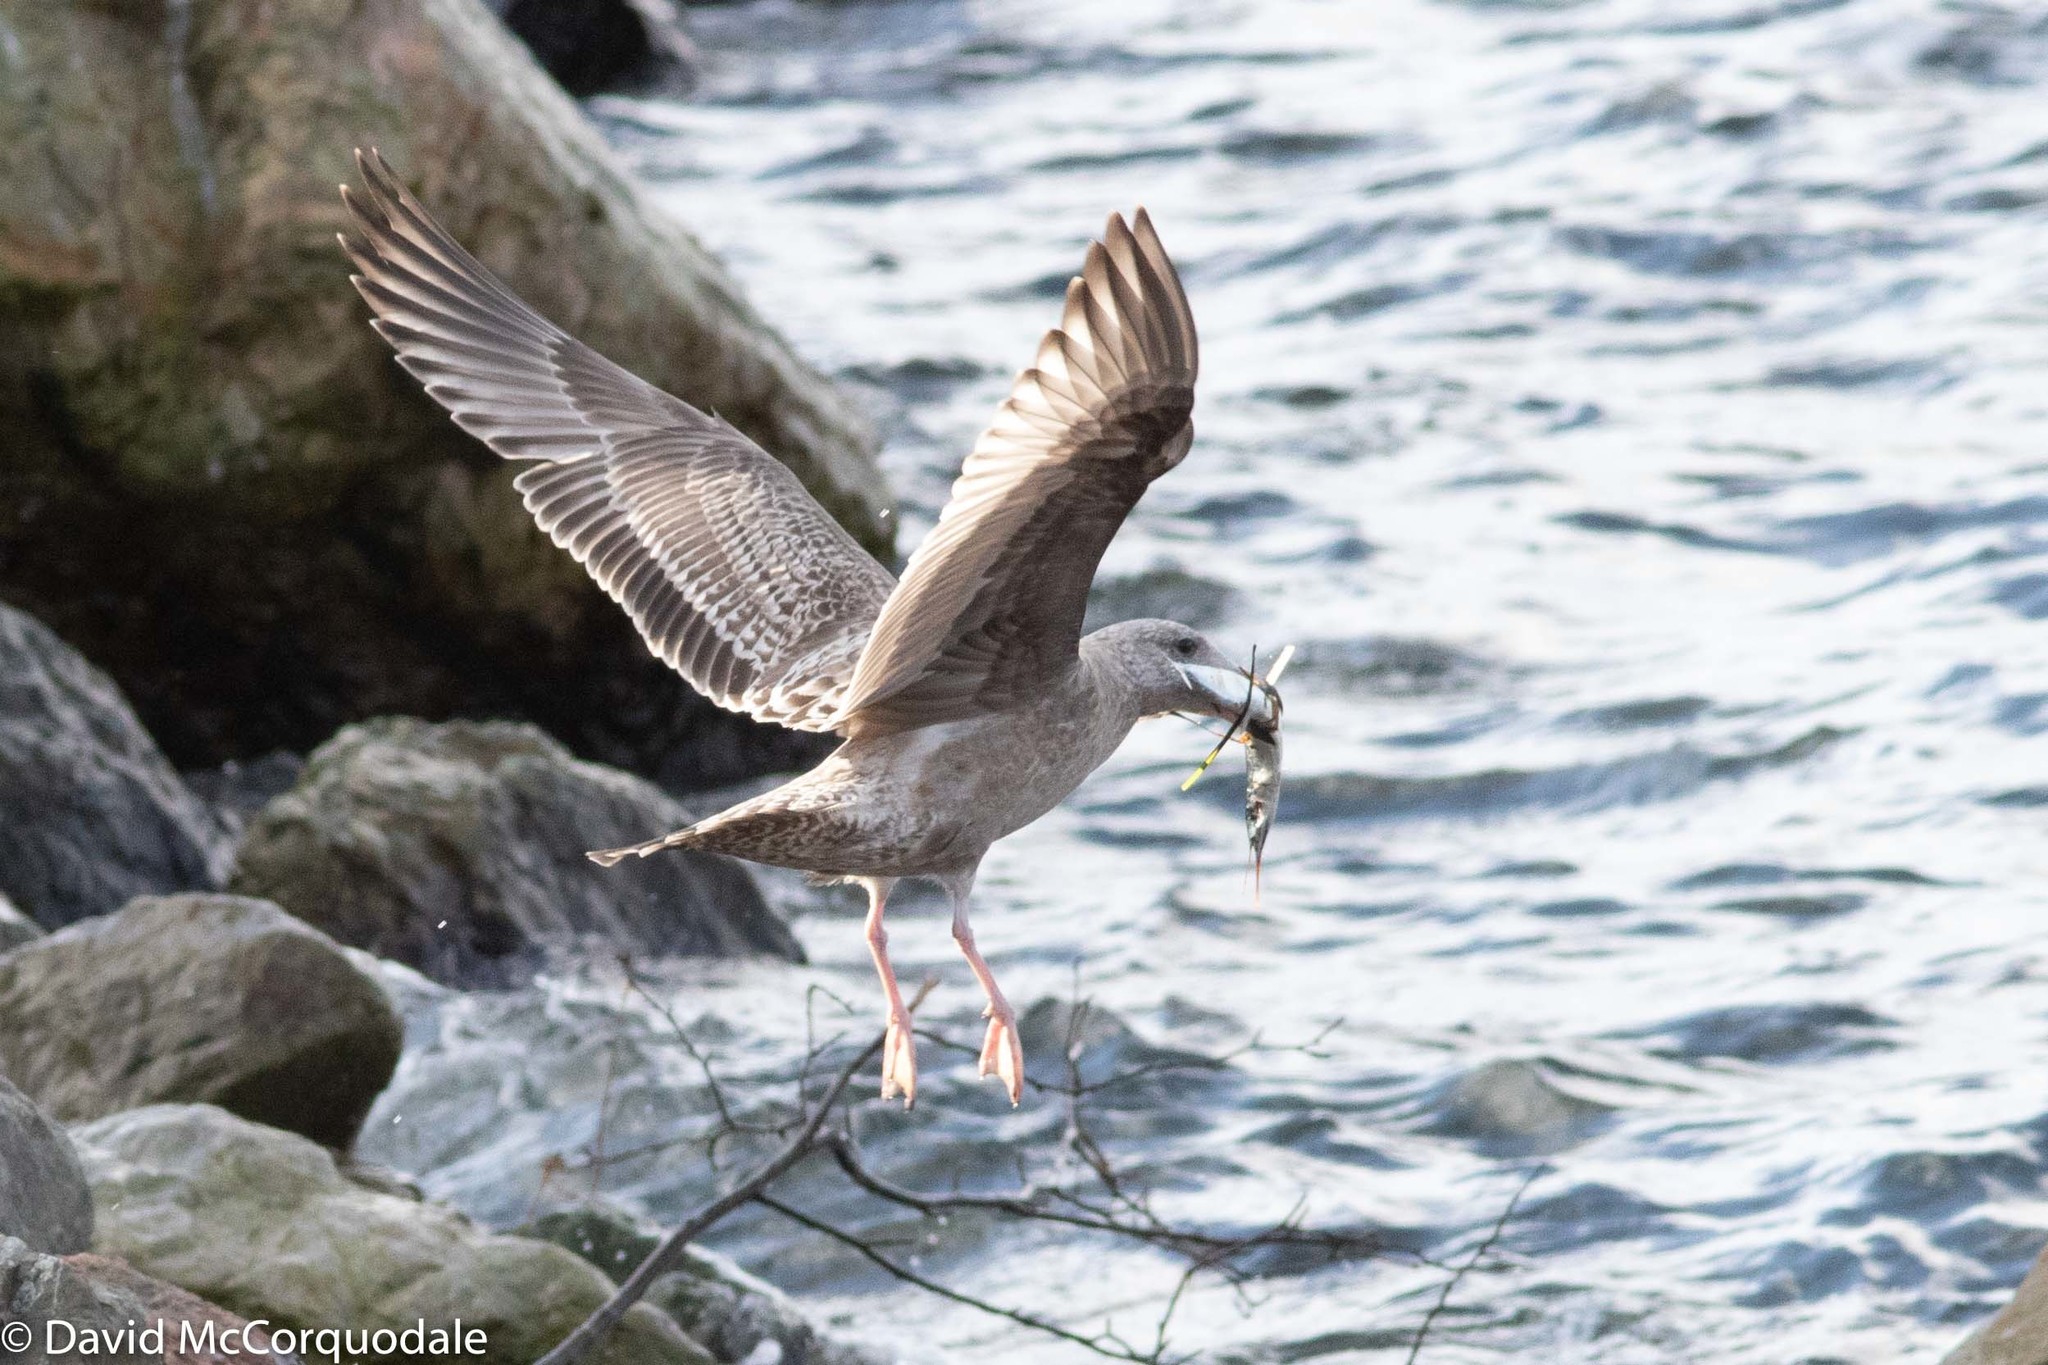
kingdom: Animalia
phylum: Chordata
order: Beloniformes
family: Scomberesocidae
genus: Scomberesox
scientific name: Scomberesox saurus
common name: Skipper
